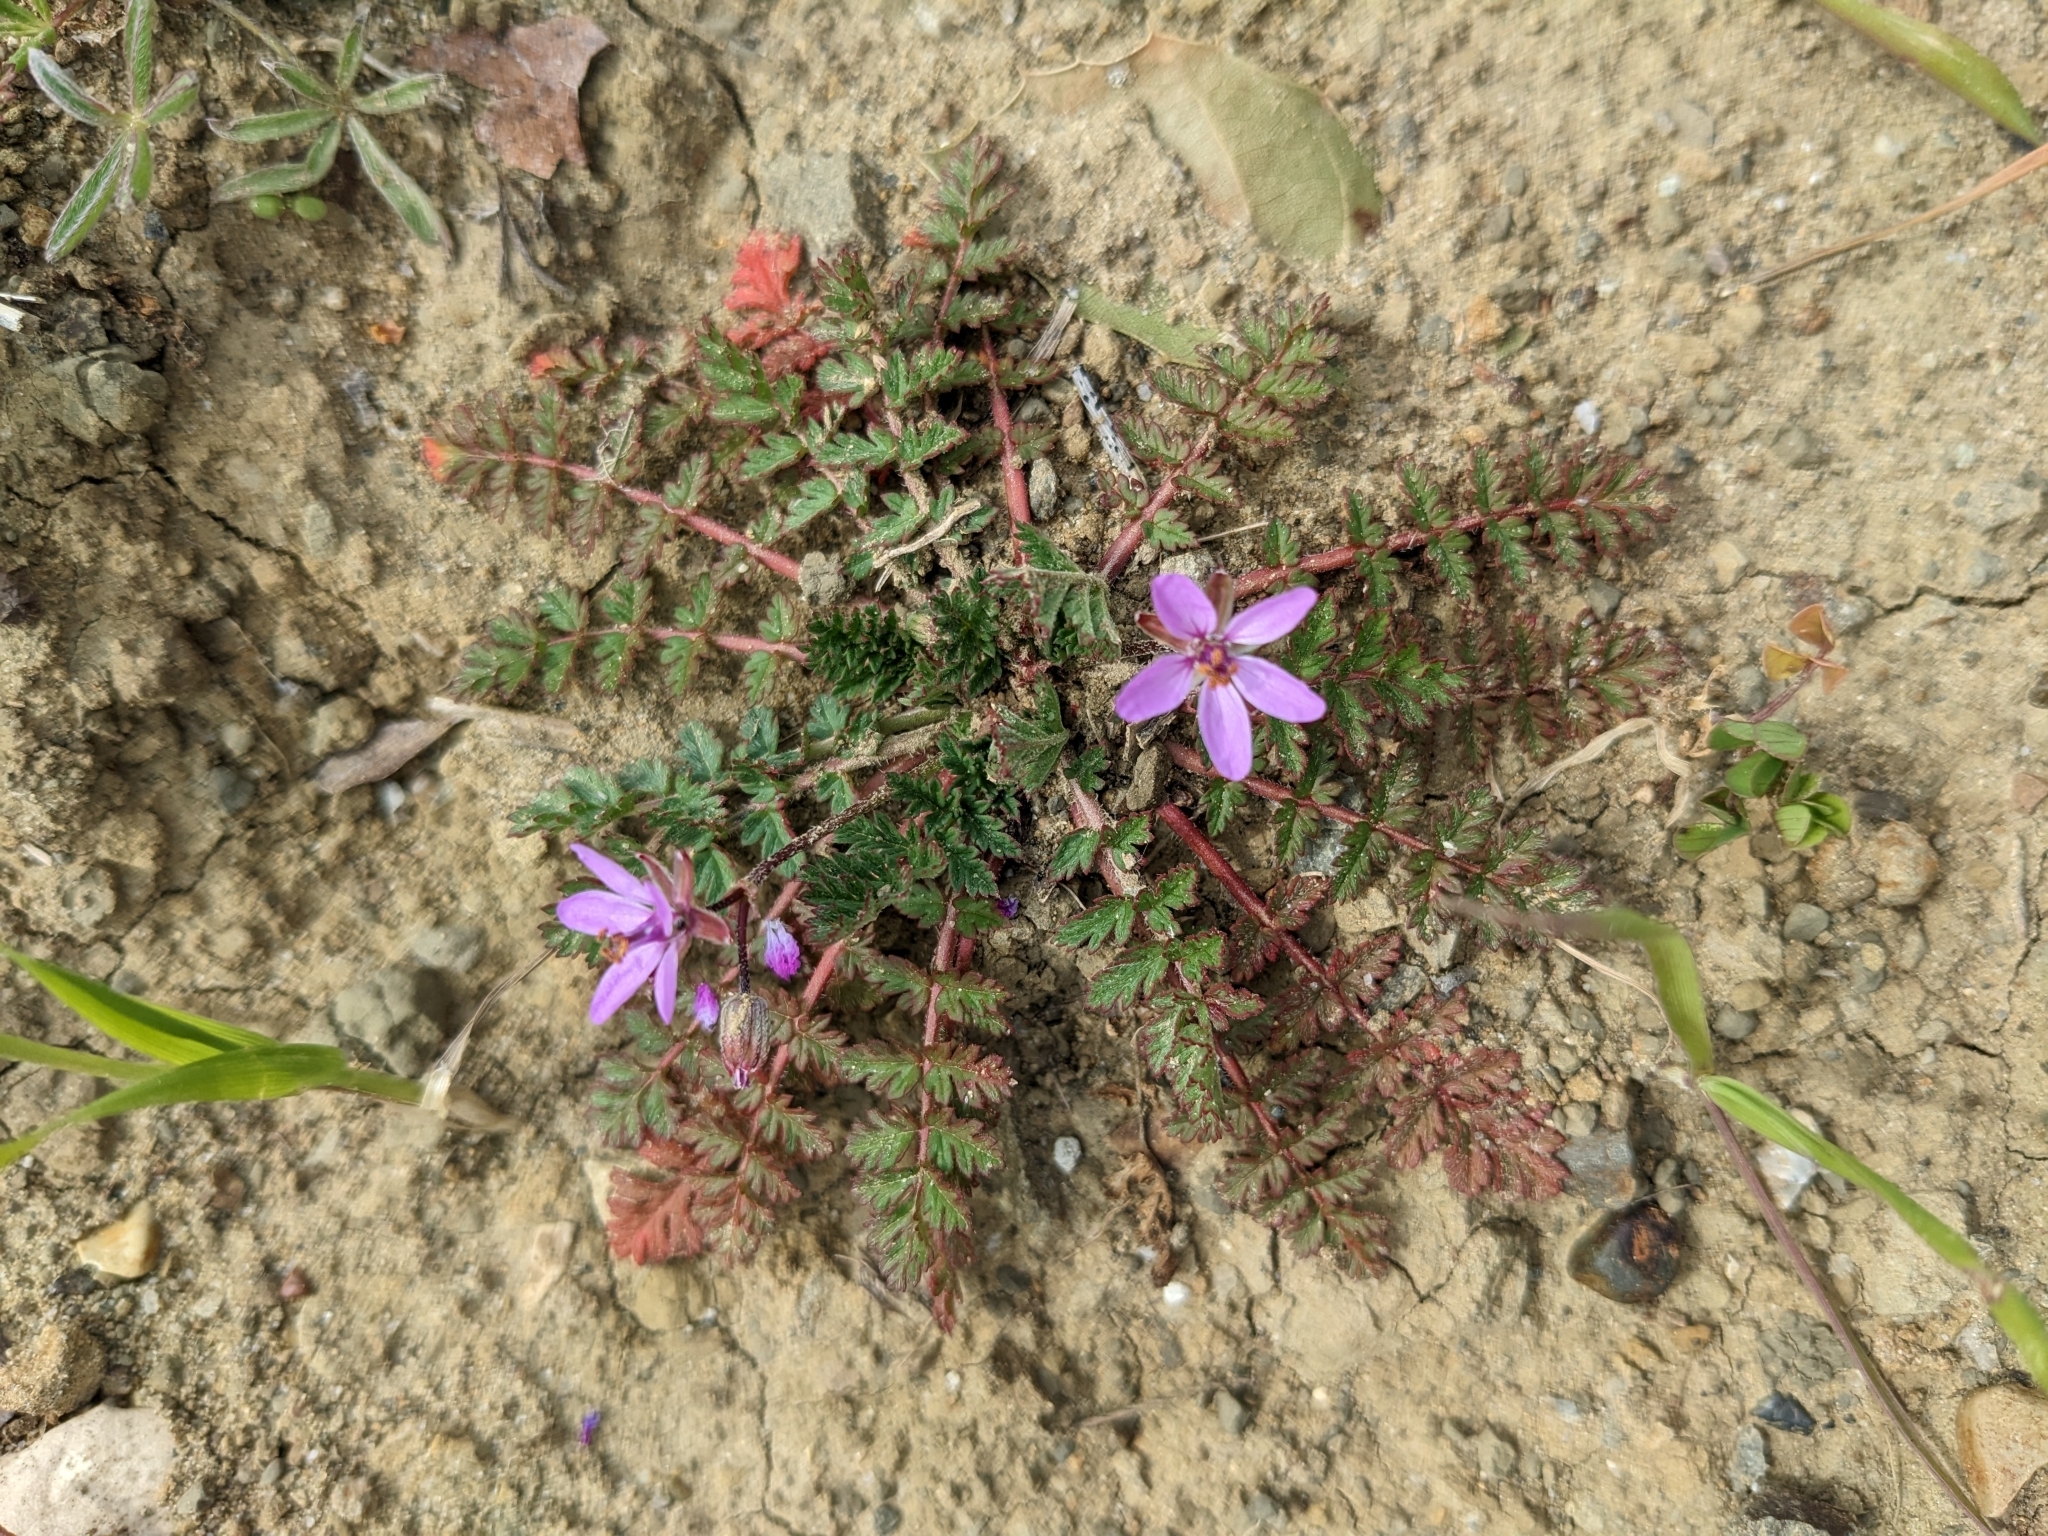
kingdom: Plantae
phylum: Tracheophyta
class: Magnoliopsida
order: Geraniales
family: Geraniaceae
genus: Erodium
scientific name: Erodium cicutarium
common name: Common stork's-bill
